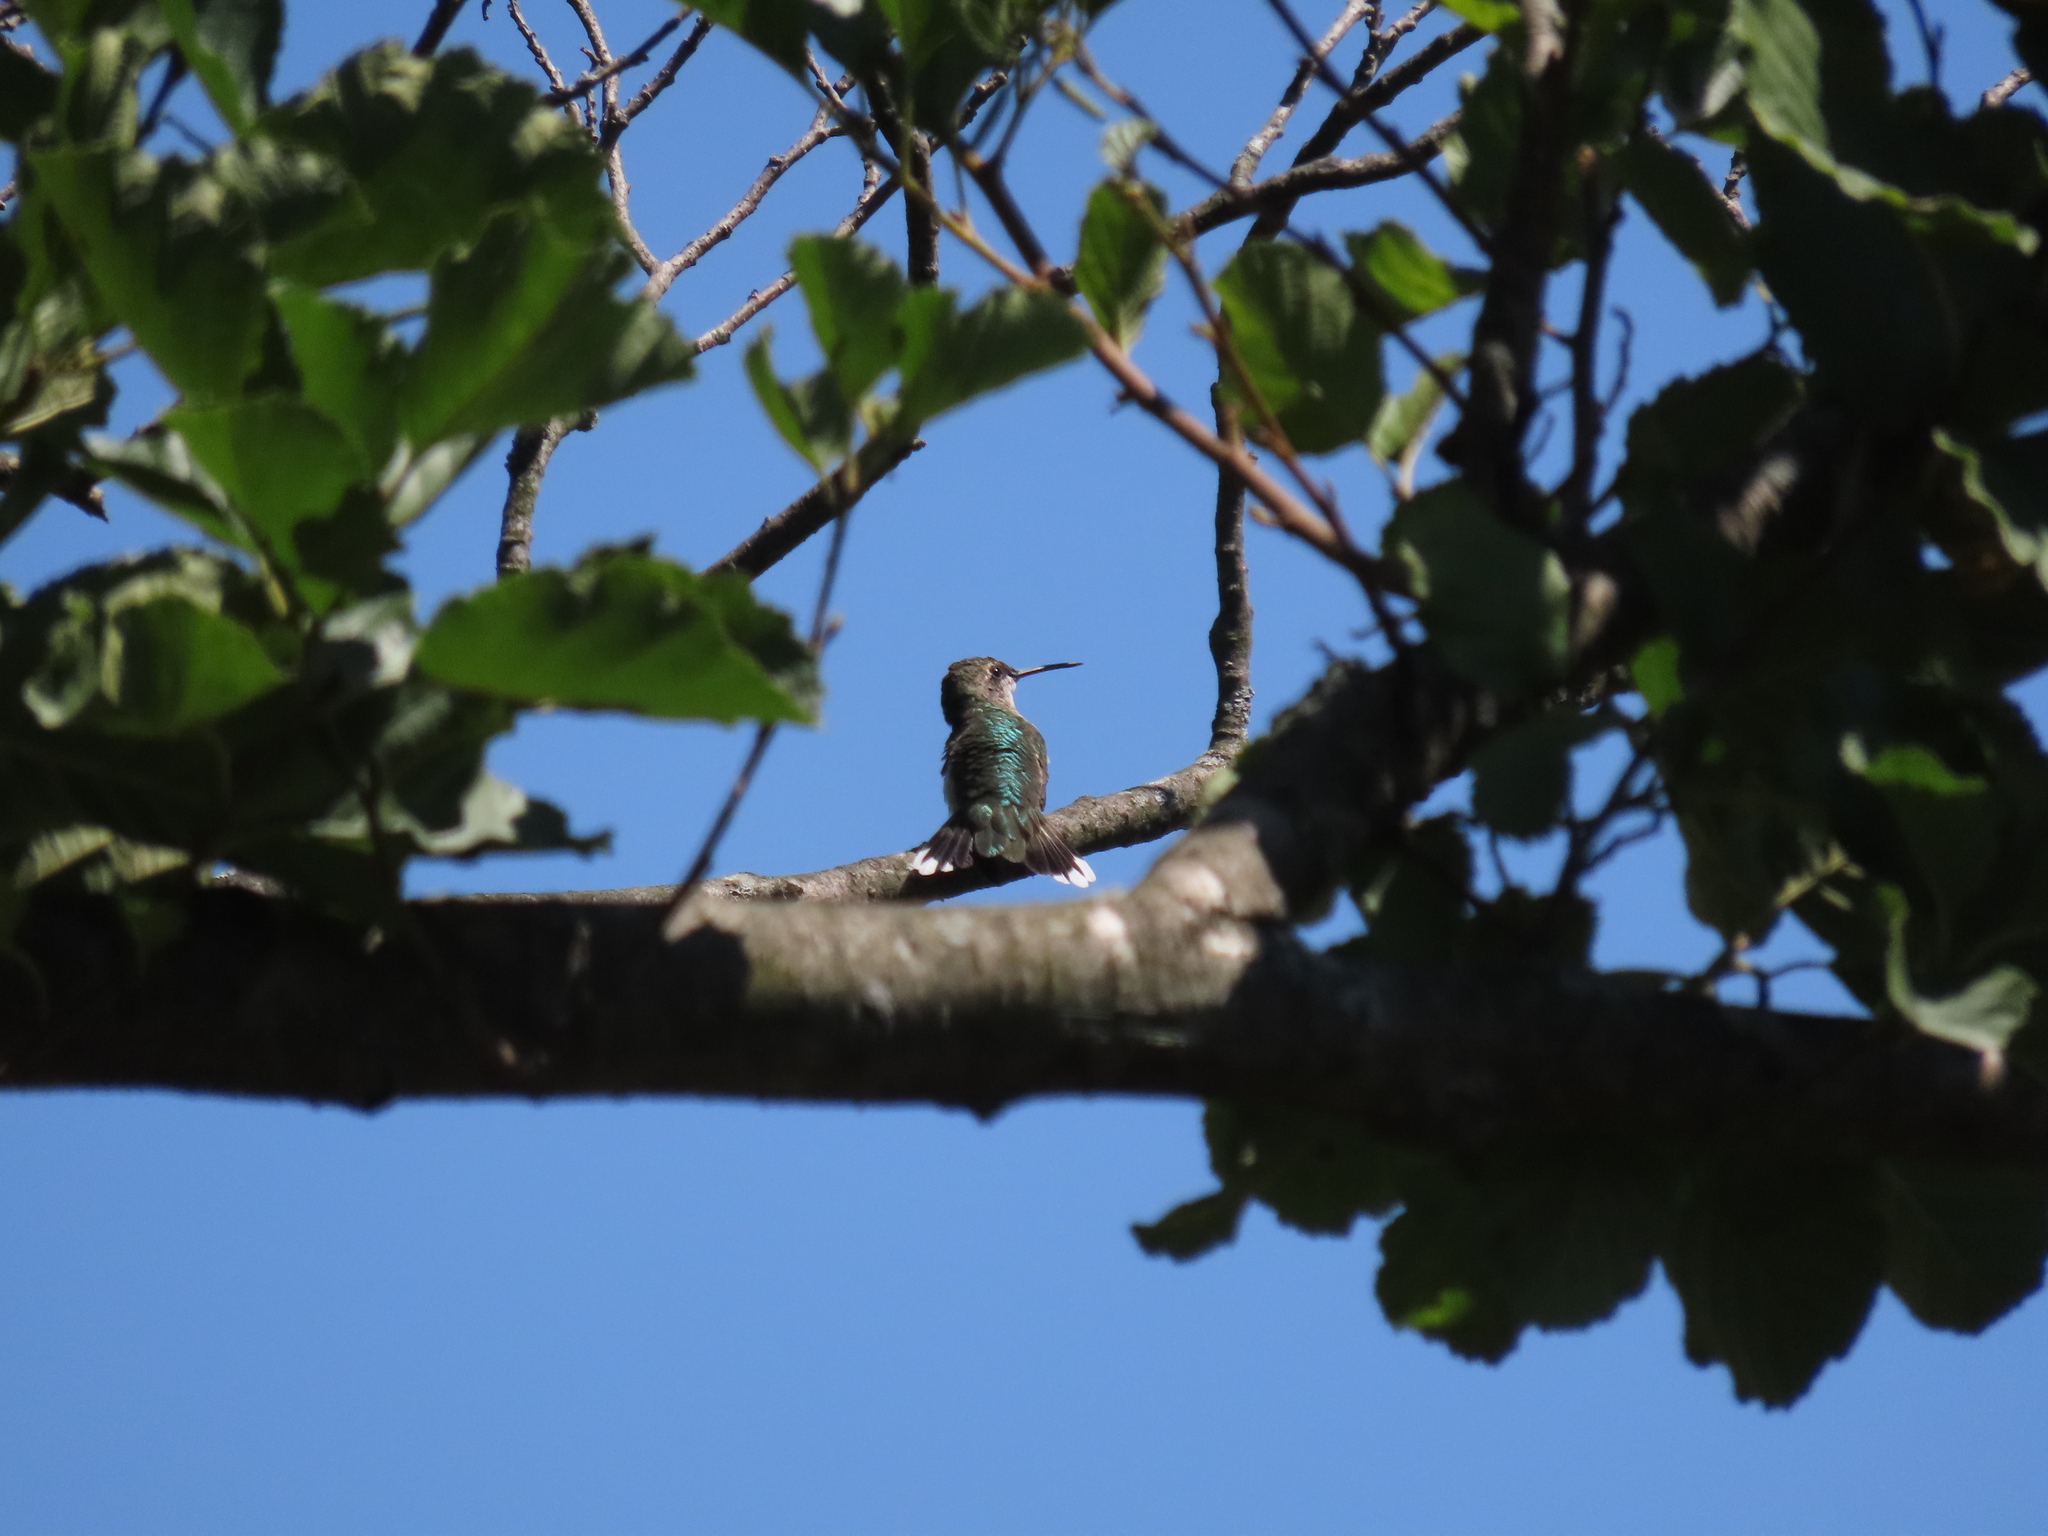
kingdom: Animalia
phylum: Chordata
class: Aves
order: Apodiformes
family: Trochilidae
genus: Archilochus
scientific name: Archilochus colubris
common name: Ruby-throated hummingbird
